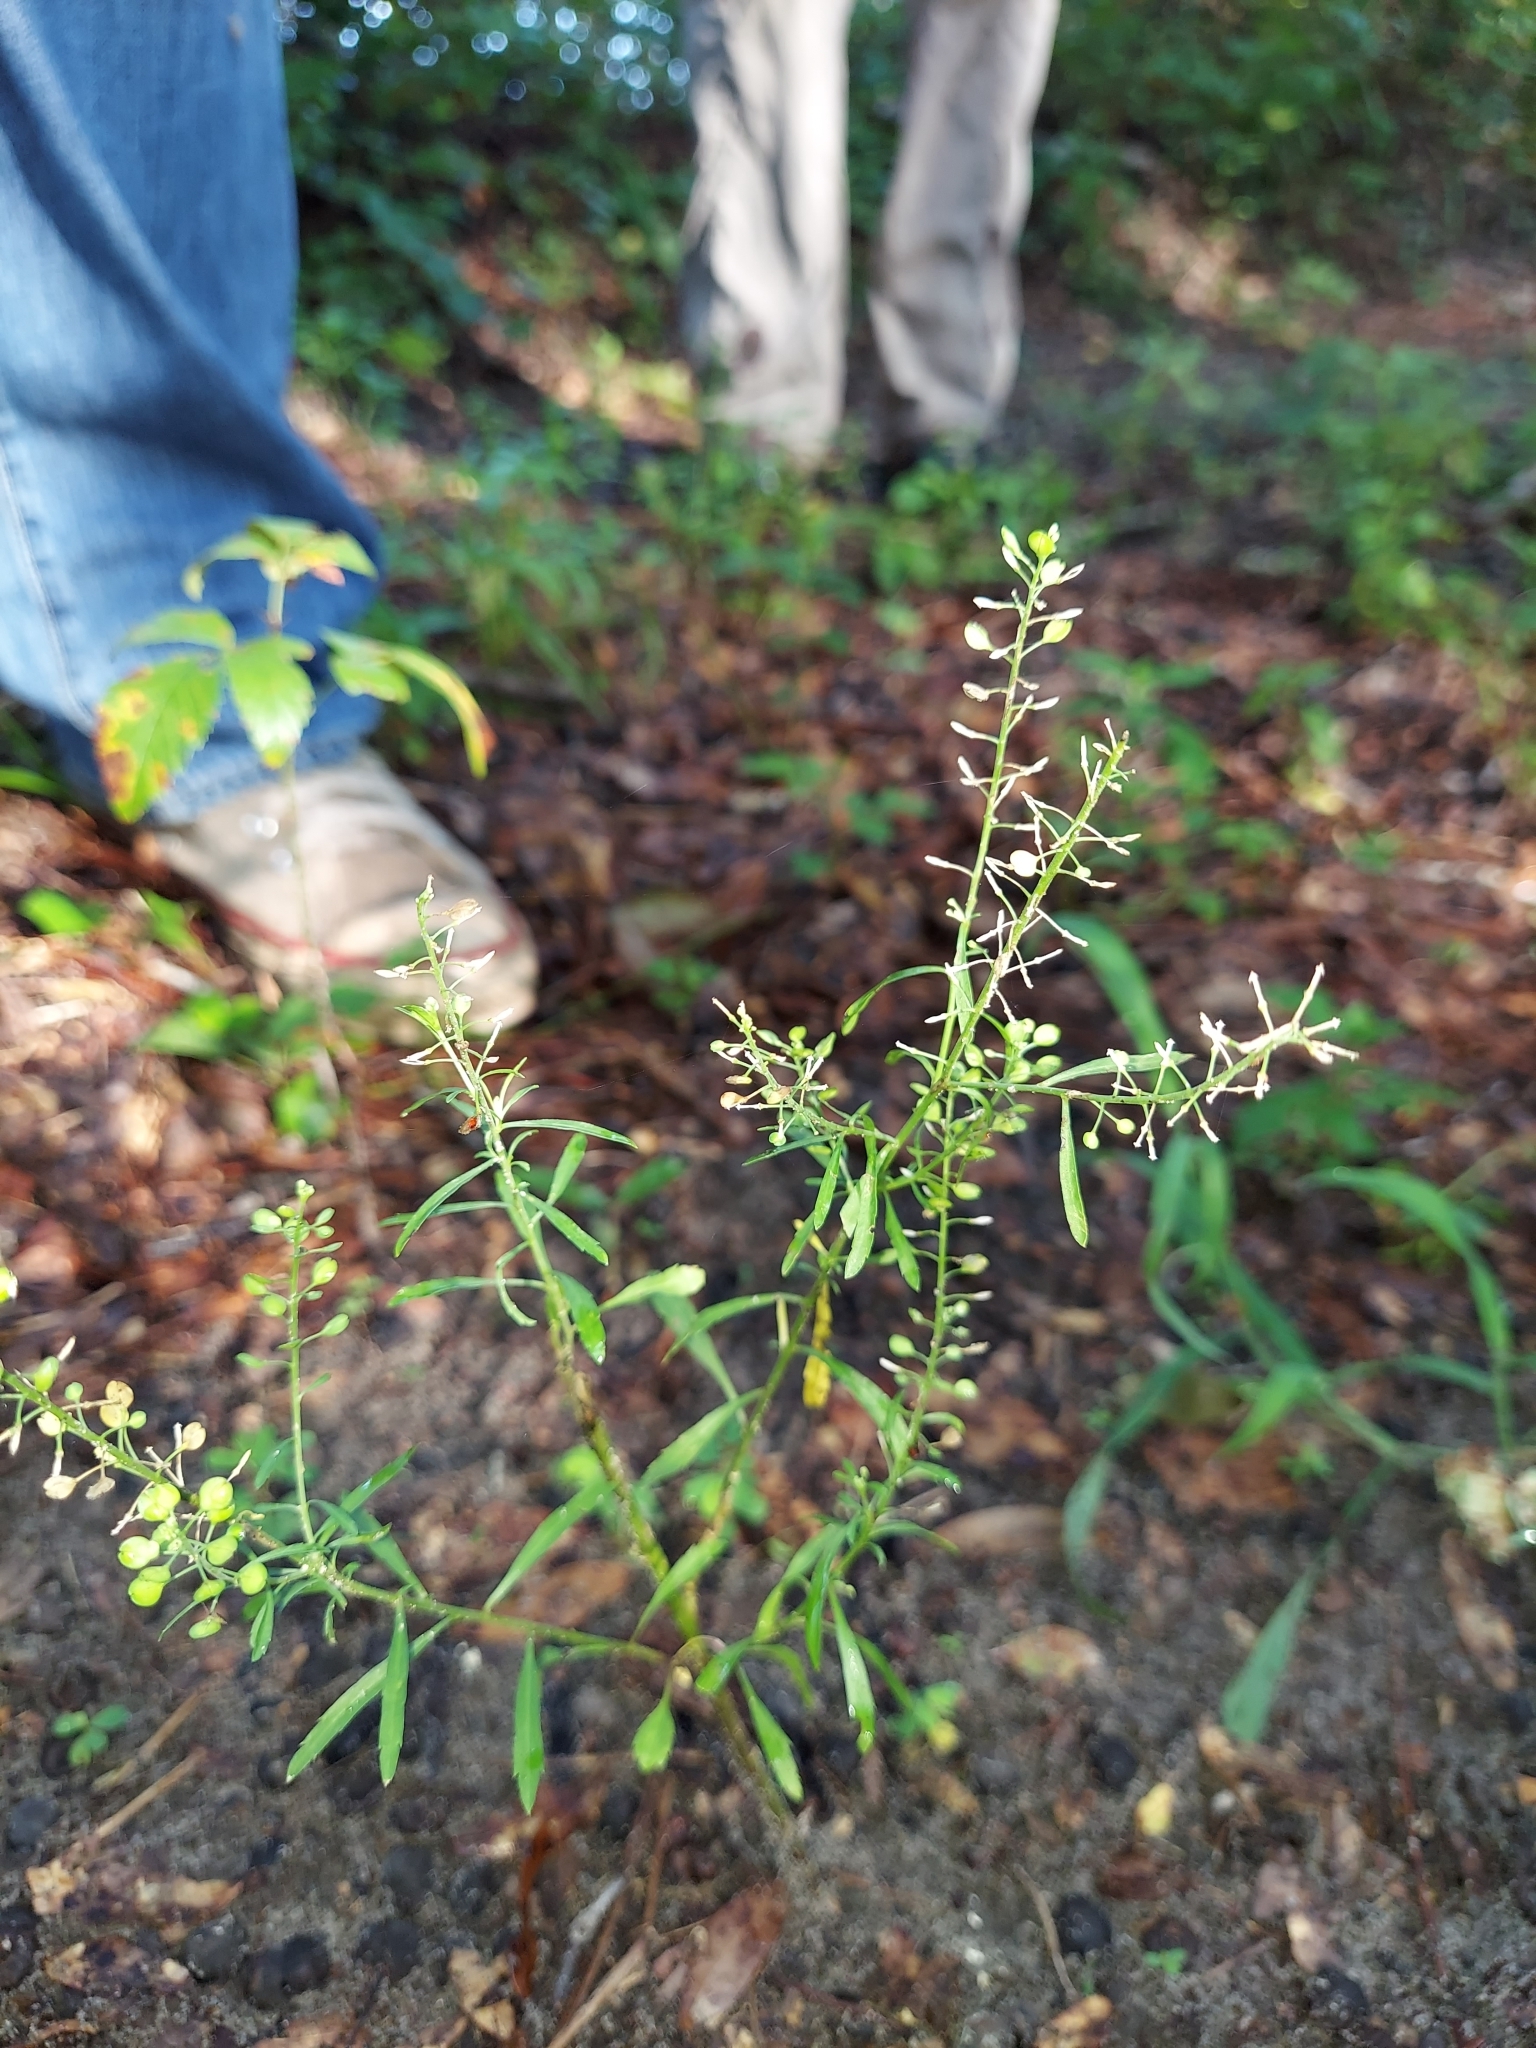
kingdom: Plantae
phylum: Tracheophyta
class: Magnoliopsida
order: Brassicales
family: Brassicaceae
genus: Lepidium
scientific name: Lepidium virginicum
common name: Least pepperwort
